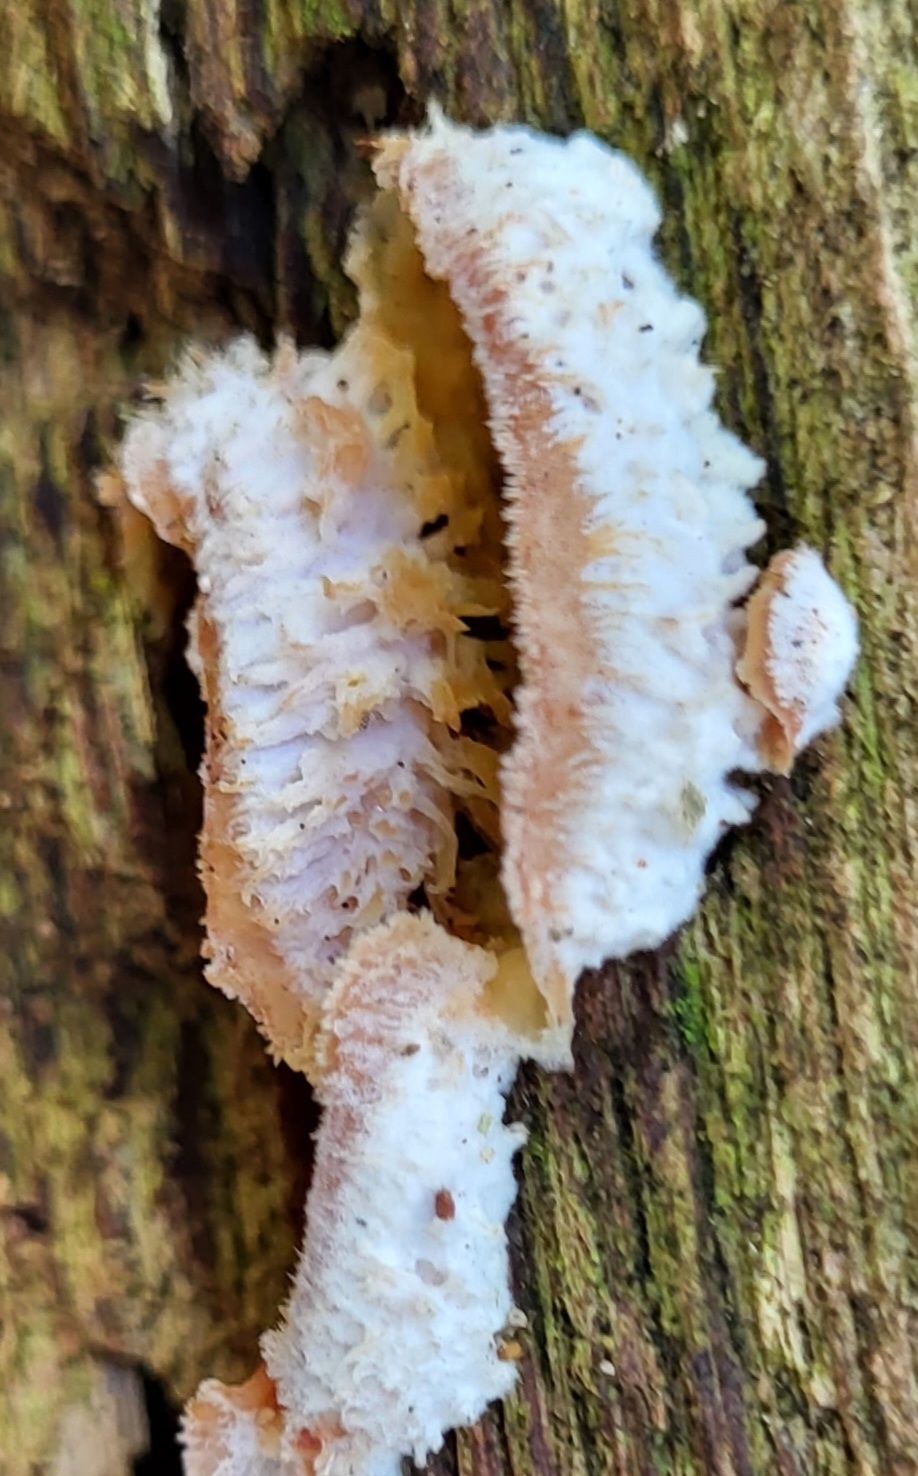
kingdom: Fungi
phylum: Basidiomycota
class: Agaricomycetes
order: Polyporales
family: Meruliaceae
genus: Phlebia
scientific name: Phlebia tremellosa
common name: Jelly rot
